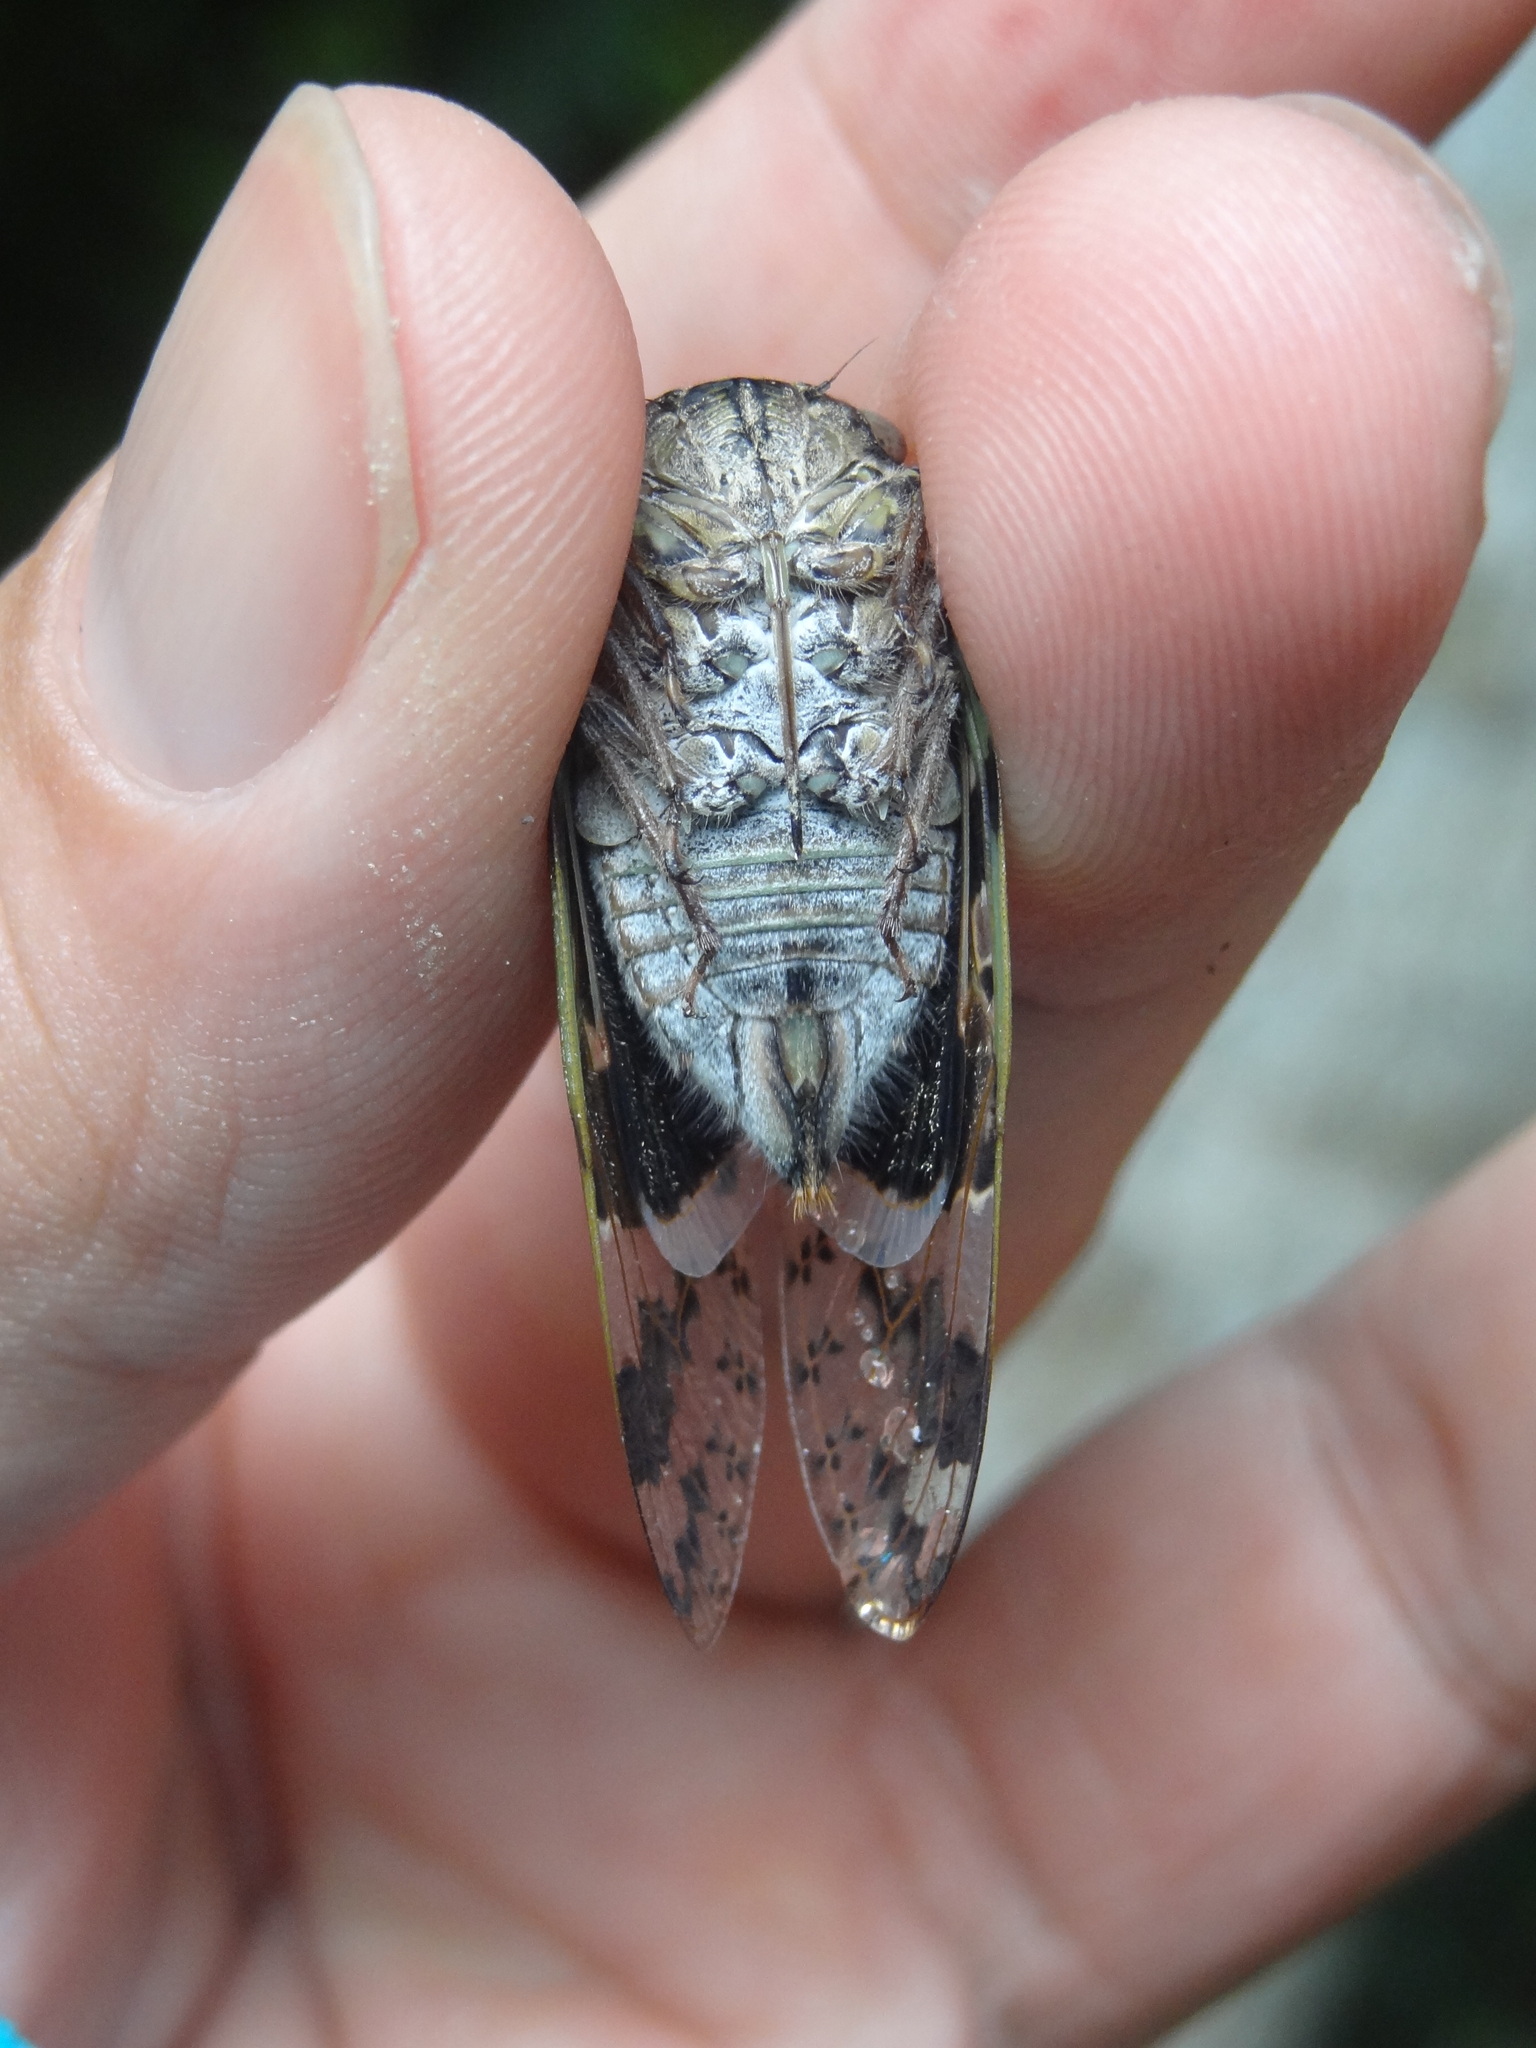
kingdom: Animalia
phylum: Arthropoda
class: Insecta
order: Hemiptera
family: Cicadidae
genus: Platypleura
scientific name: Platypleura takasagona
